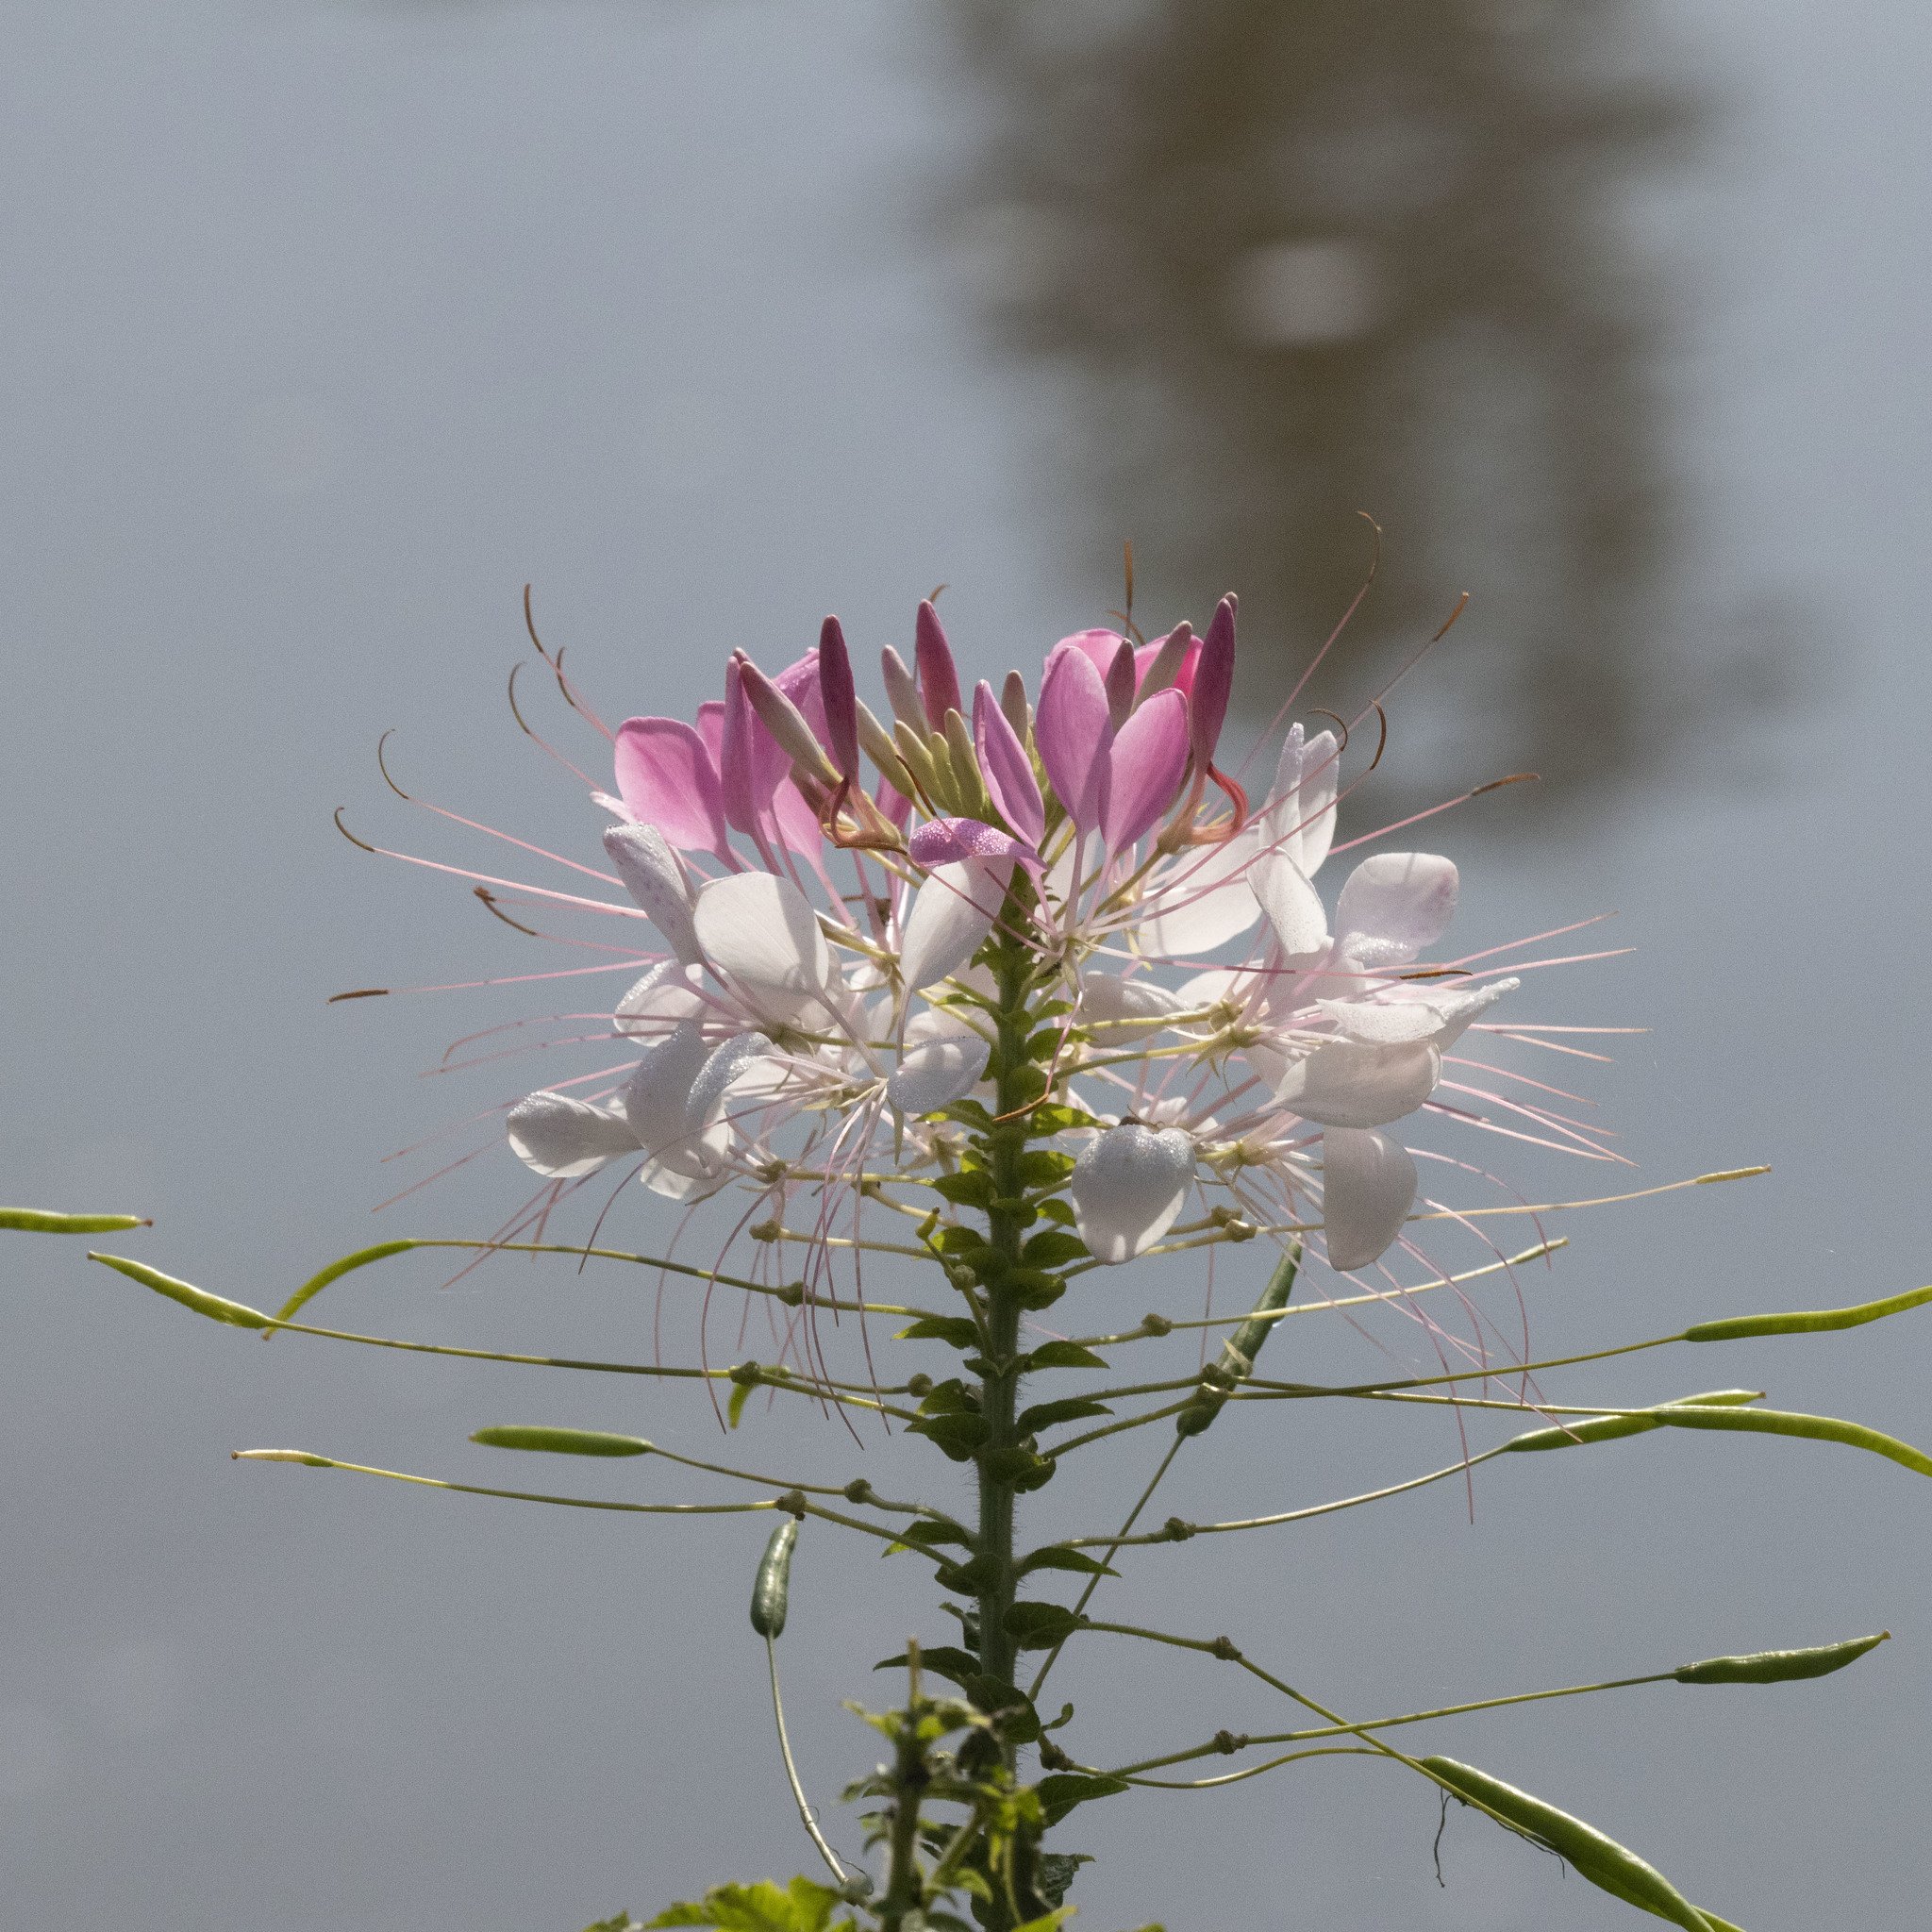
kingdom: Plantae
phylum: Tracheophyta
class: Magnoliopsida
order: Brassicales
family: Cleomaceae
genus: Tarenaya
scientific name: Tarenaya houtteana
